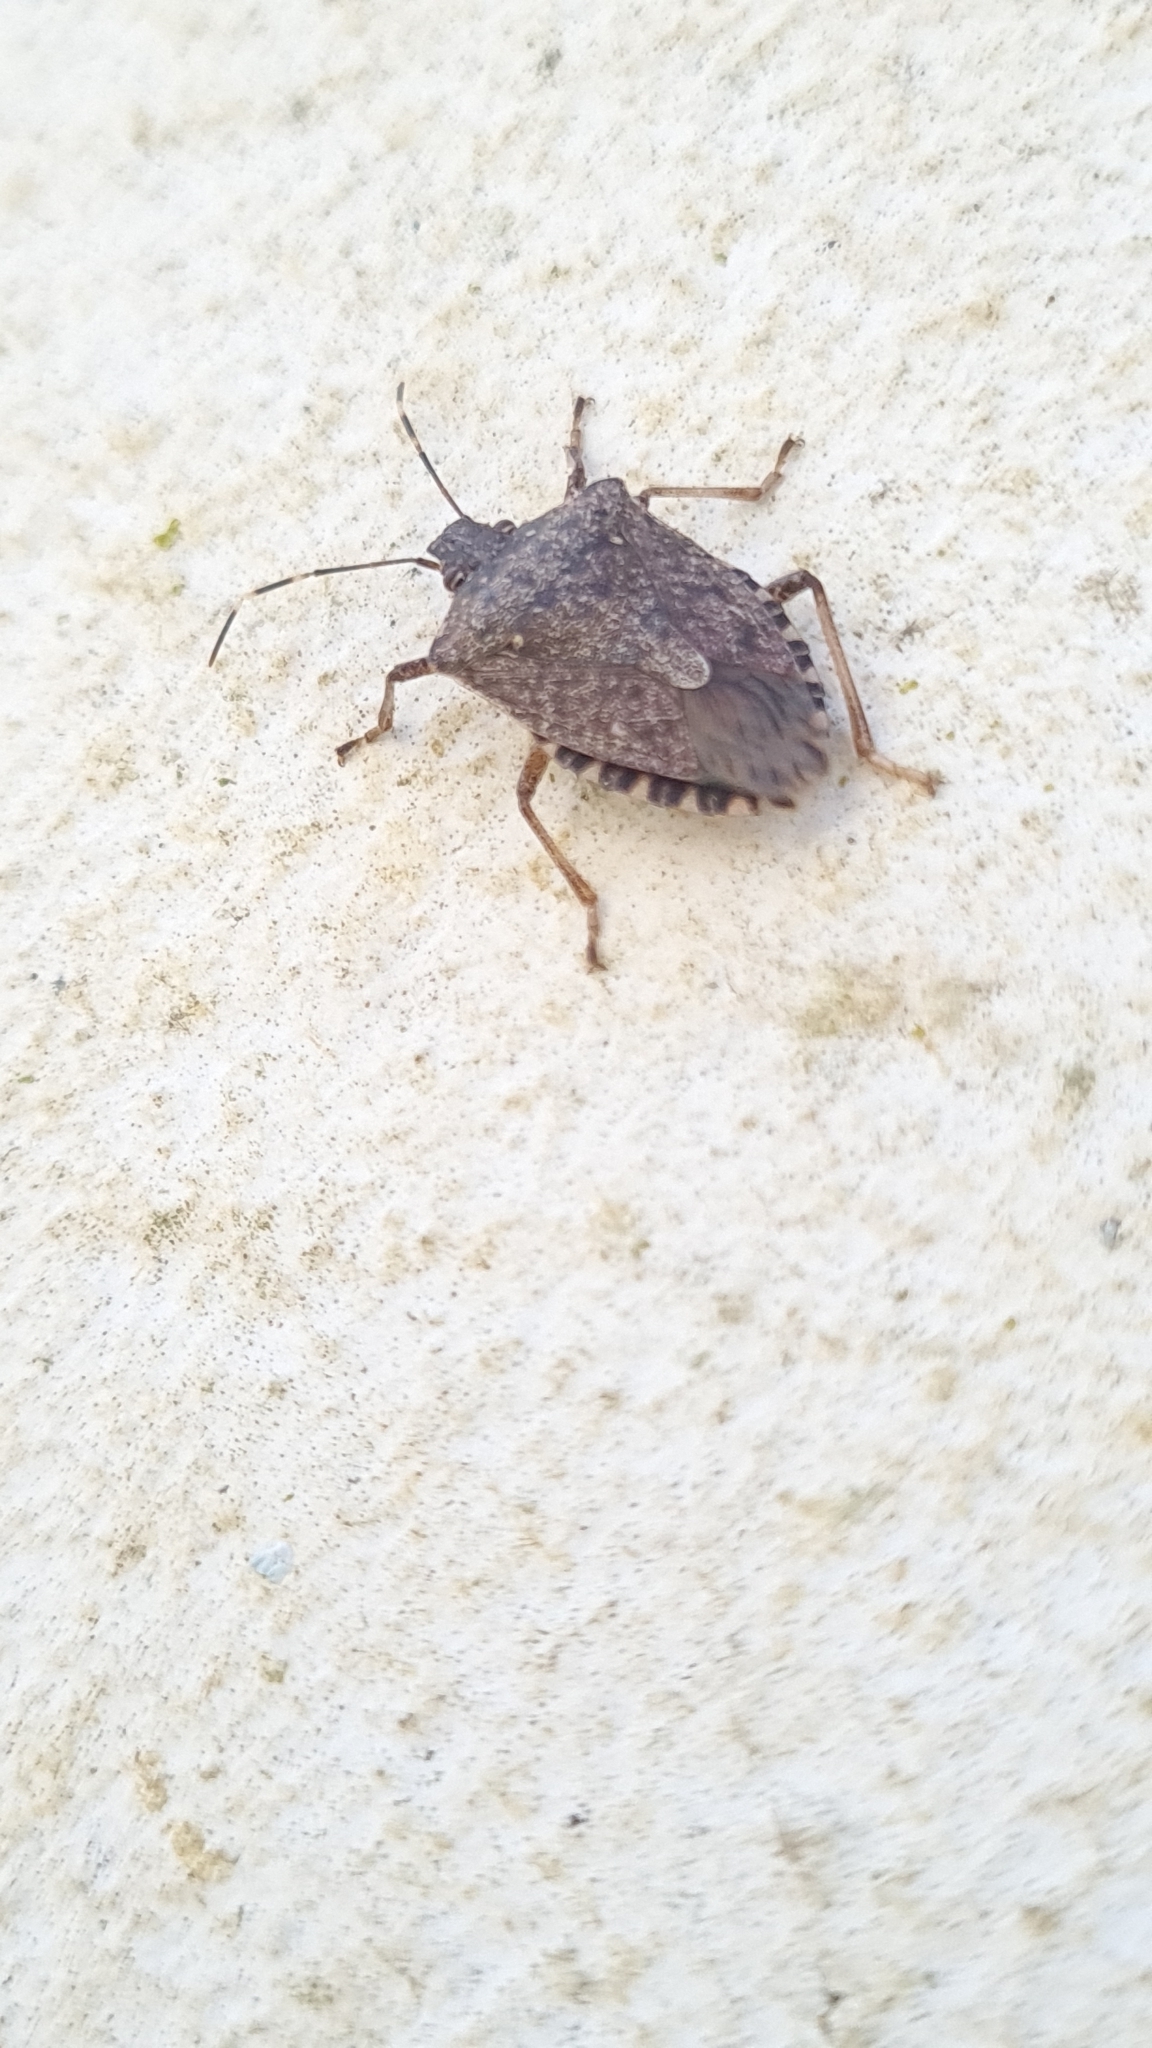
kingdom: Animalia
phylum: Arthropoda
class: Insecta
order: Hemiptera
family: Pentatomidae
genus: Halyomorpha
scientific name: Halyomorpha halys
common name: Brown marmorated stink bug
